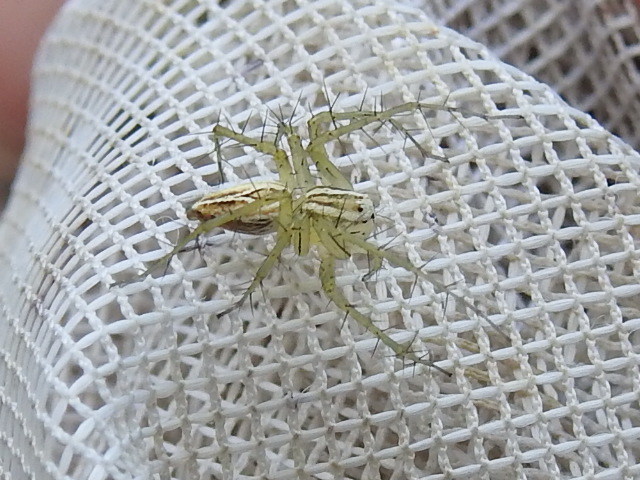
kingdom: Animalia
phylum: Arthropoda
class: Arachnida
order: Araneae
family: Oxyopidae
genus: Oxyopes
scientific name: Oxyopes salticus
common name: Lynx spiders
